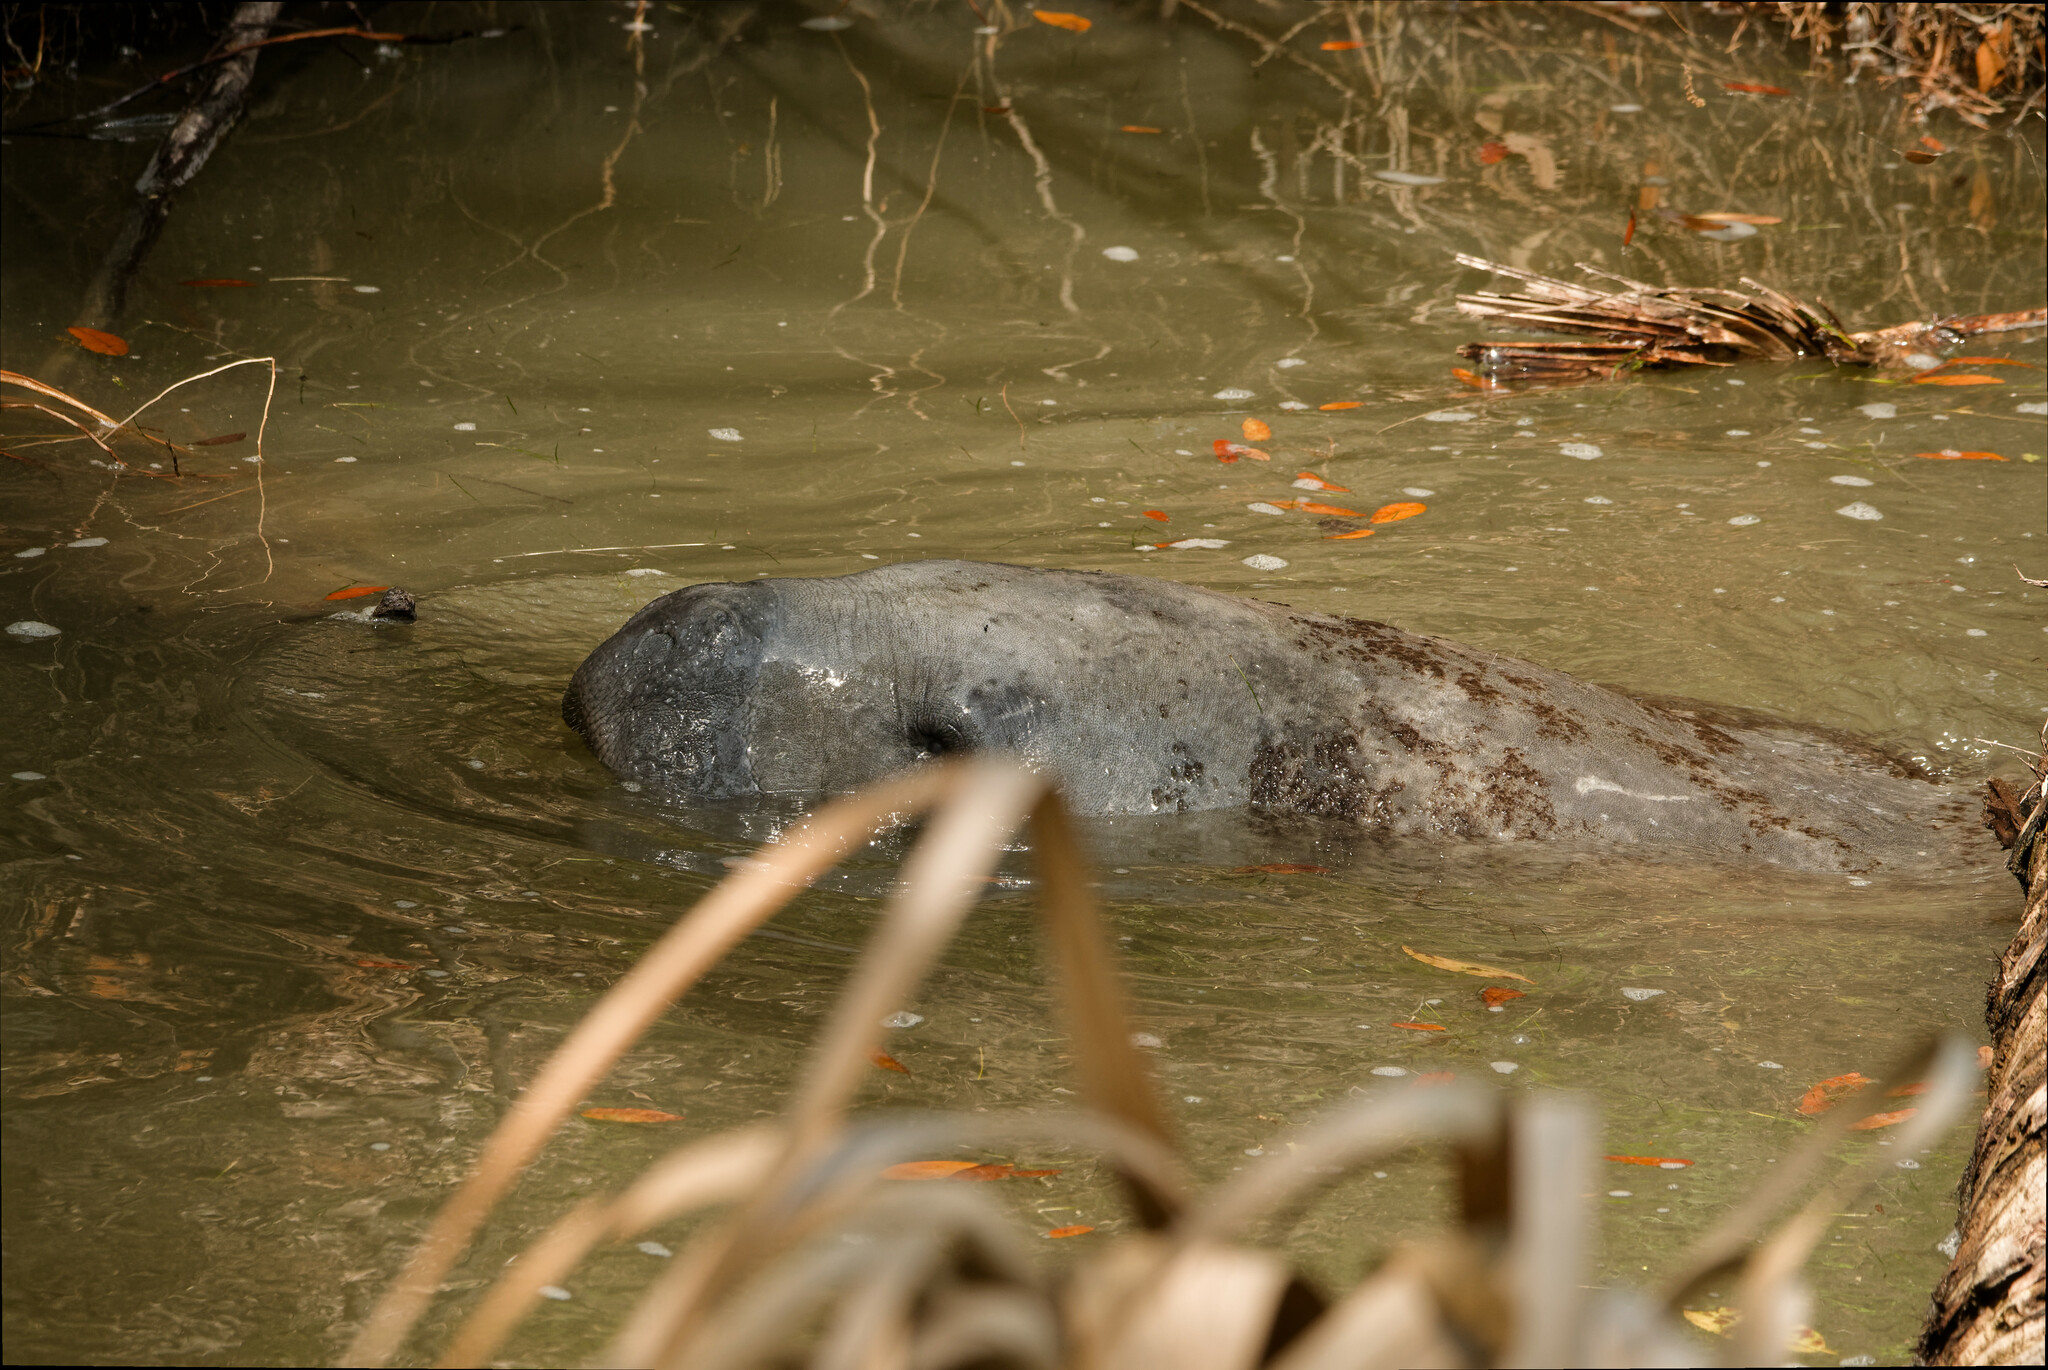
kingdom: Animalia
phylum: Chordata
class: Mammalia
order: Sirenia
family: Trichechidae
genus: Trichechus
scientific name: Trichechus manatus
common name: West indian manatee
